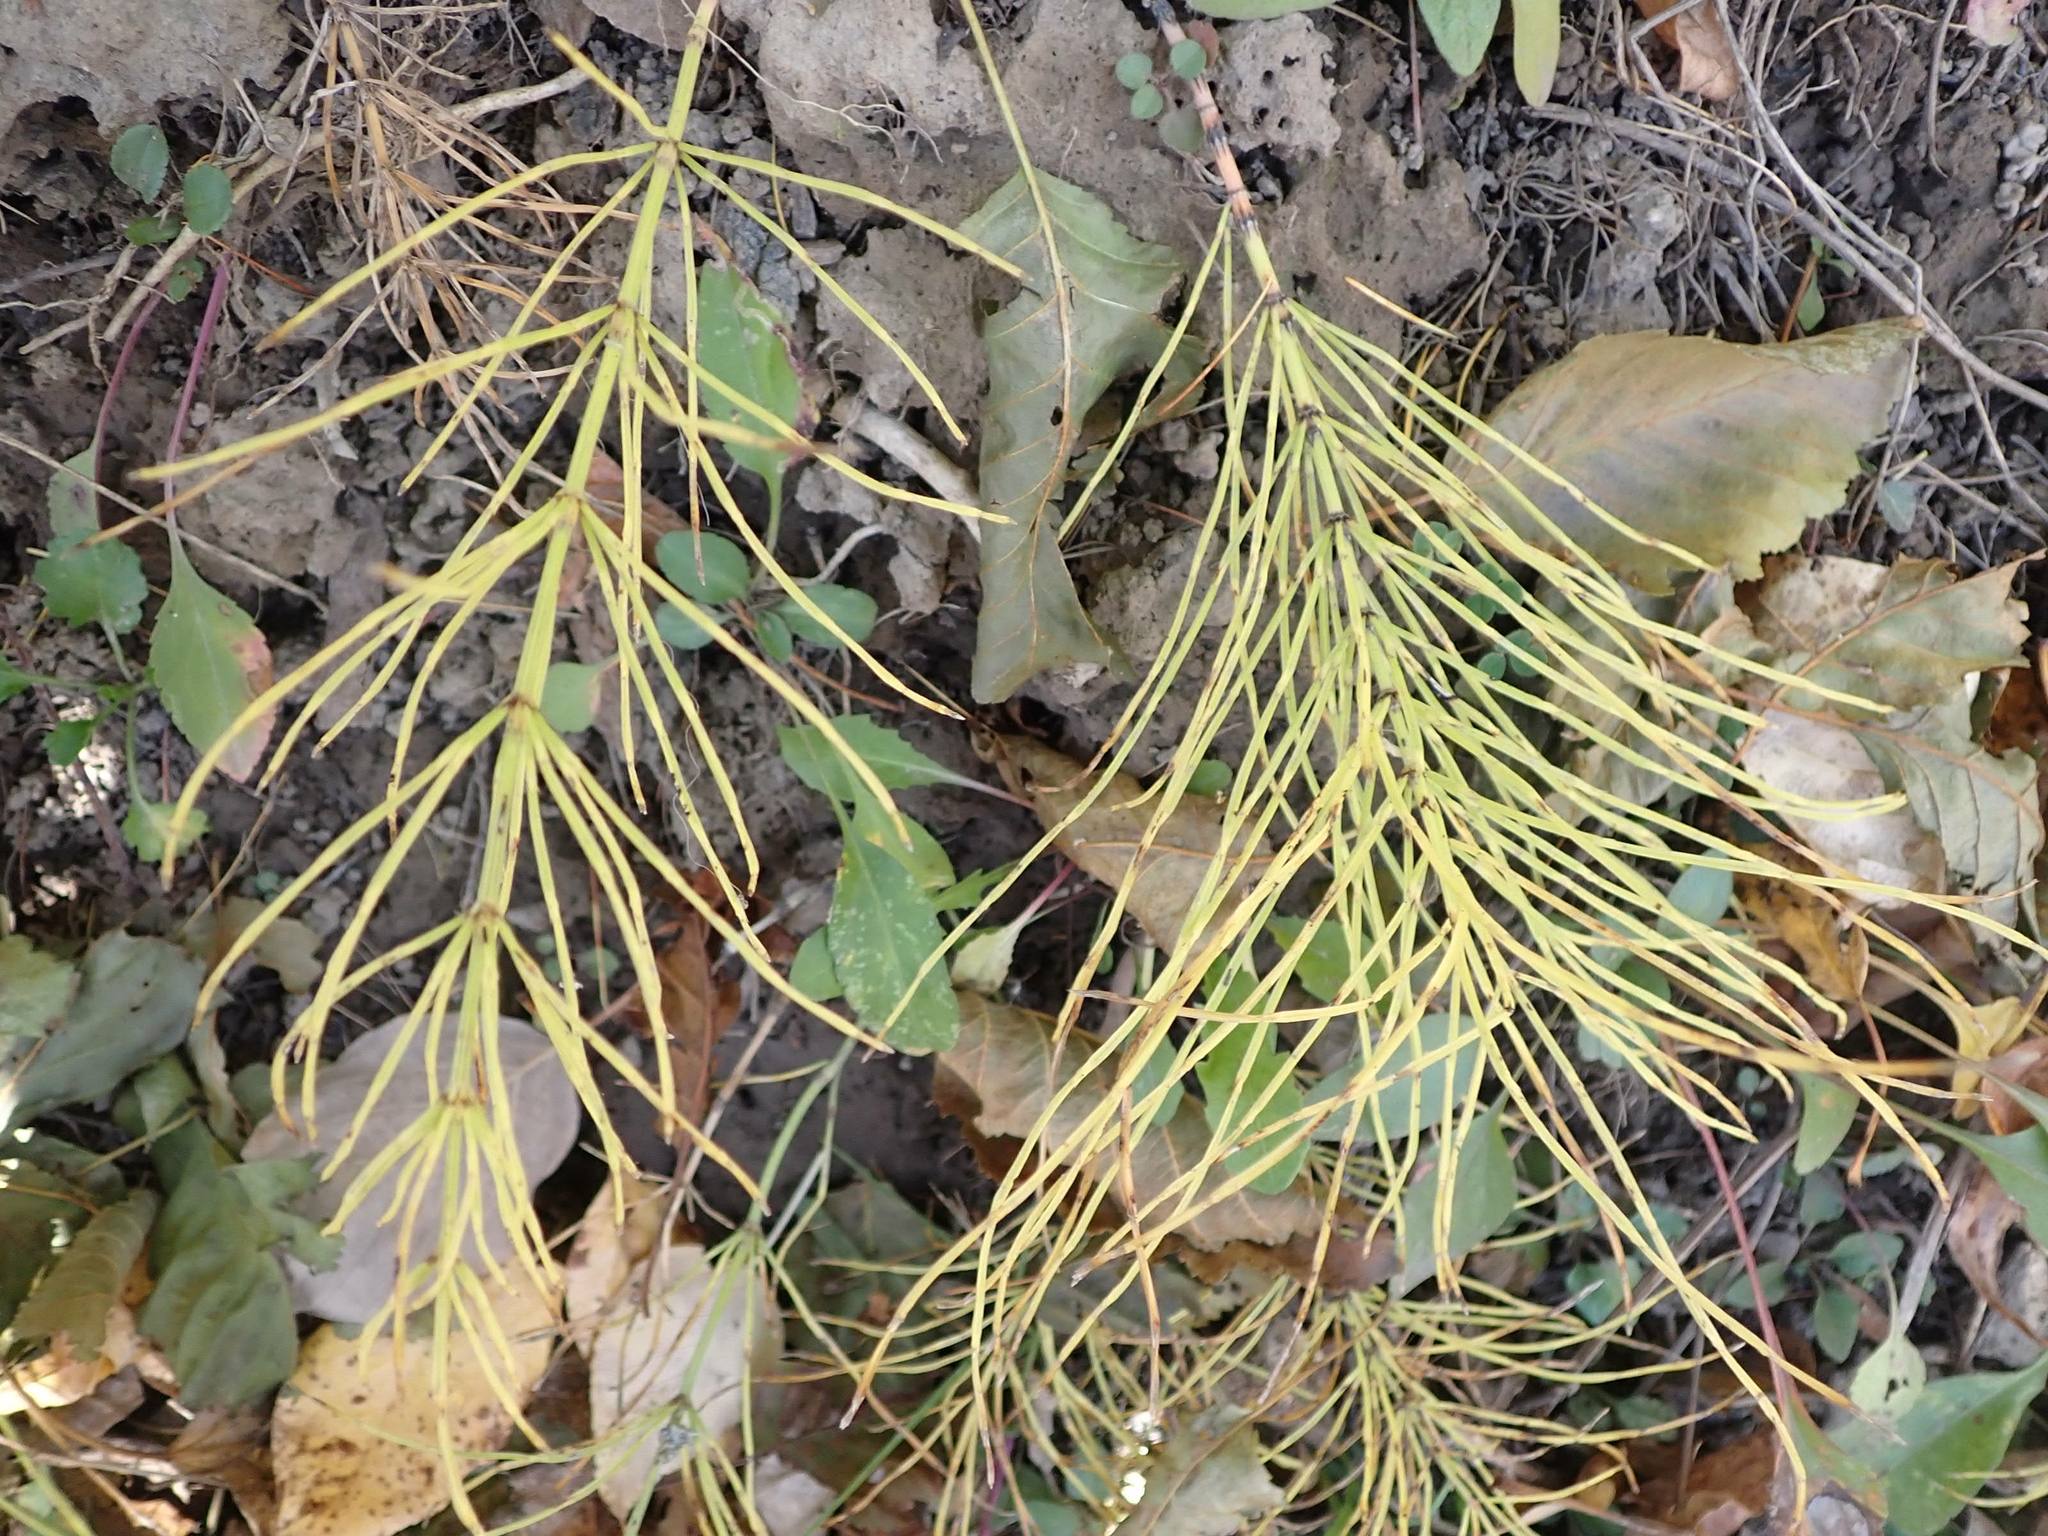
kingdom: Plantae
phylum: Tracheophyta
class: Polypodiopsida
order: Equisetales
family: Equisetaceae
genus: Equisetum
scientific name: Equisetum arvense
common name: Field horsetail
